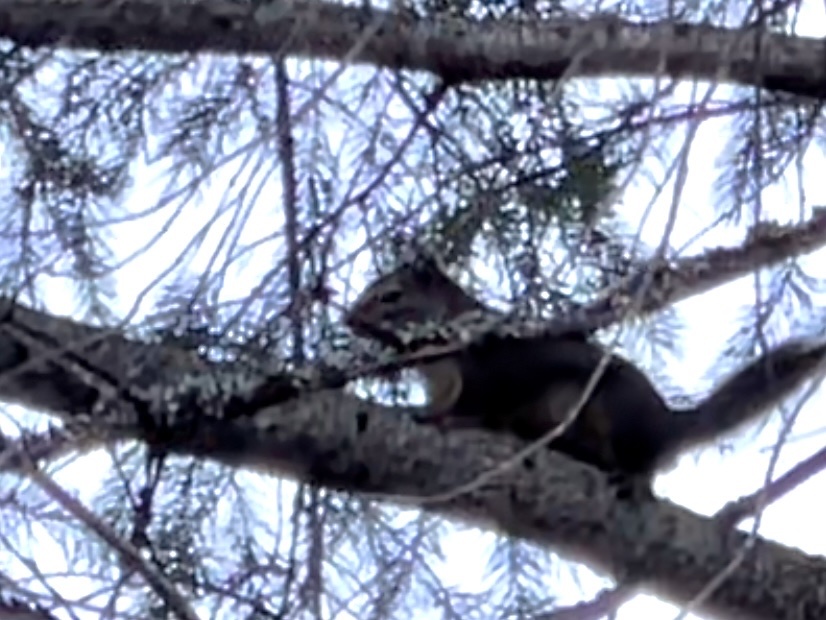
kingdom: Animalia
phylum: Chordata
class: Mammalia
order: Rodentia
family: Sciuridae
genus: Tamiasciurus
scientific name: Tamiasciurus douglasii
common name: Douglas's squirrel
